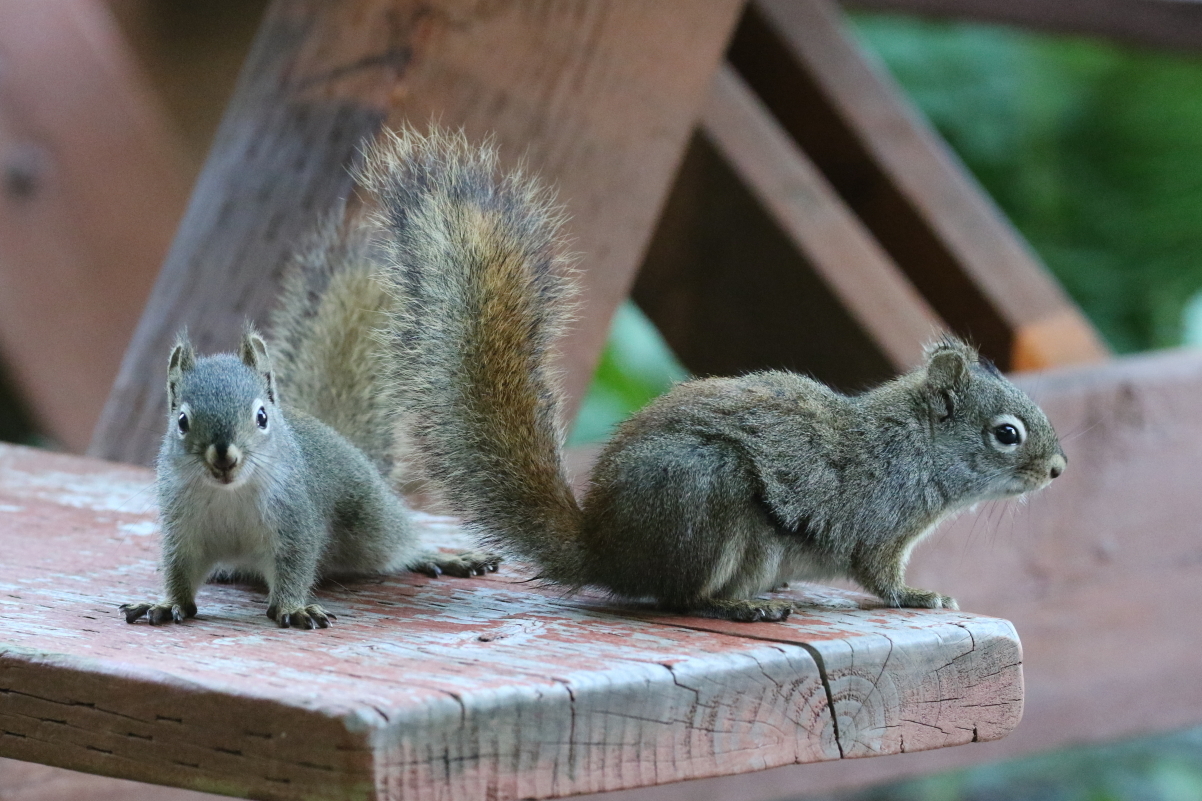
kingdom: Animalia
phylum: Chordata
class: Mammalia
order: Rodentia
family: Sciuridae
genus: Tamiasciurus
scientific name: Tamiasciurus hudsonicus
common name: Red squirrel
